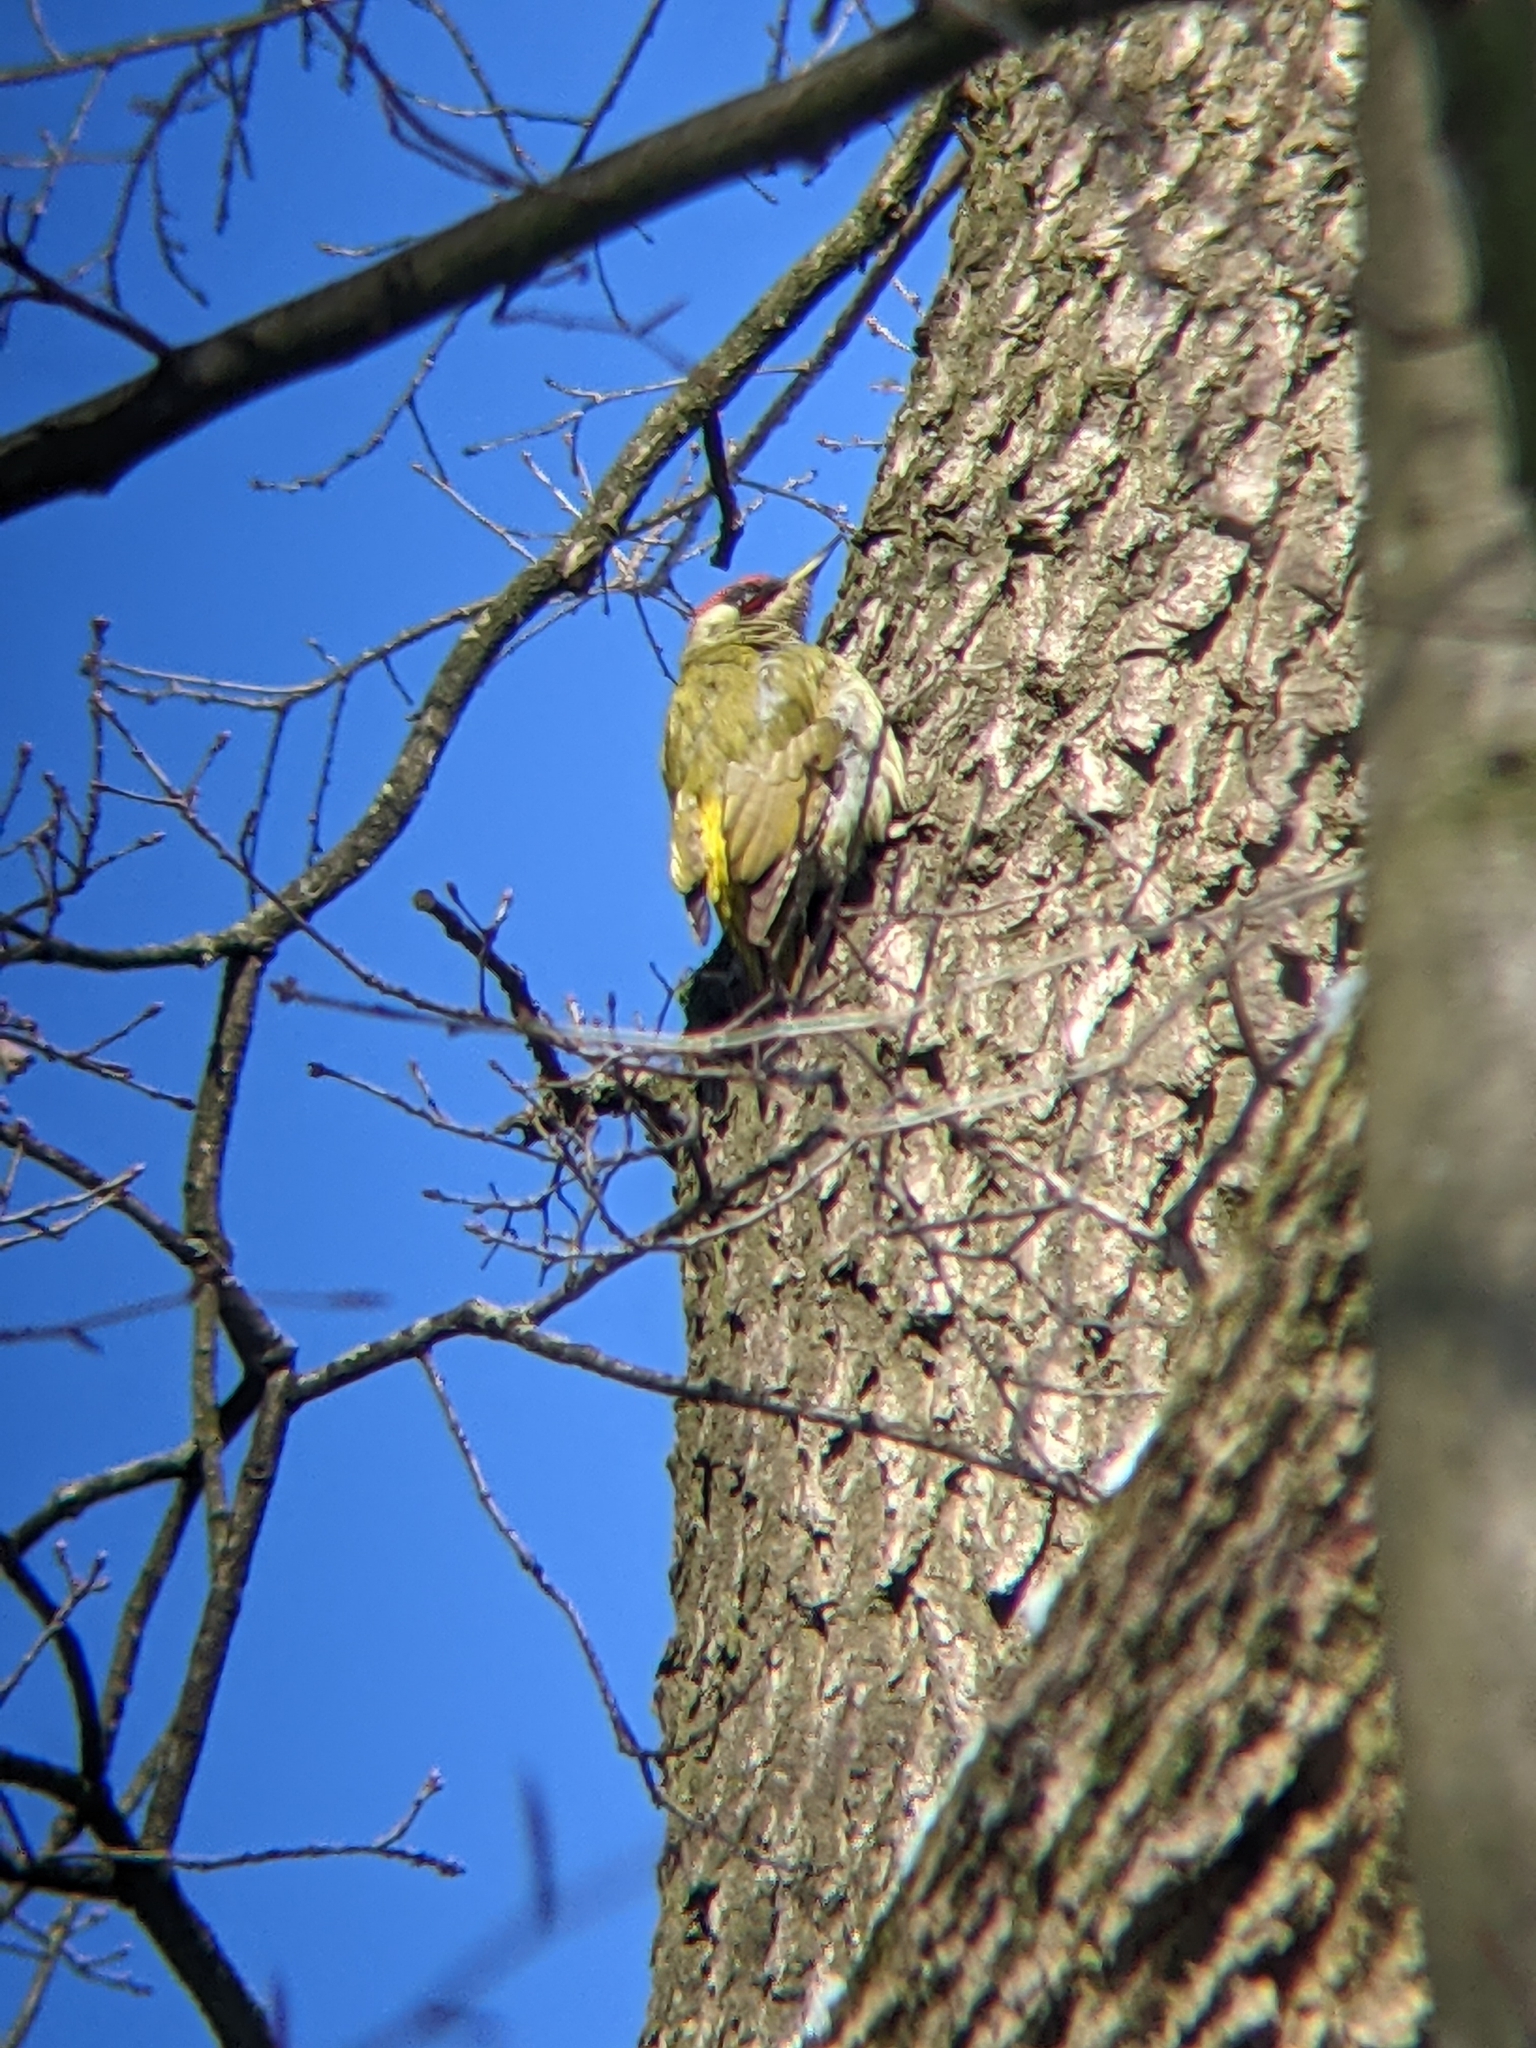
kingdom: Animalia
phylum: Chordata
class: Aves
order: Piciformes
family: Picidae
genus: Picus
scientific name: Picus viridis
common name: European green woodpecker
